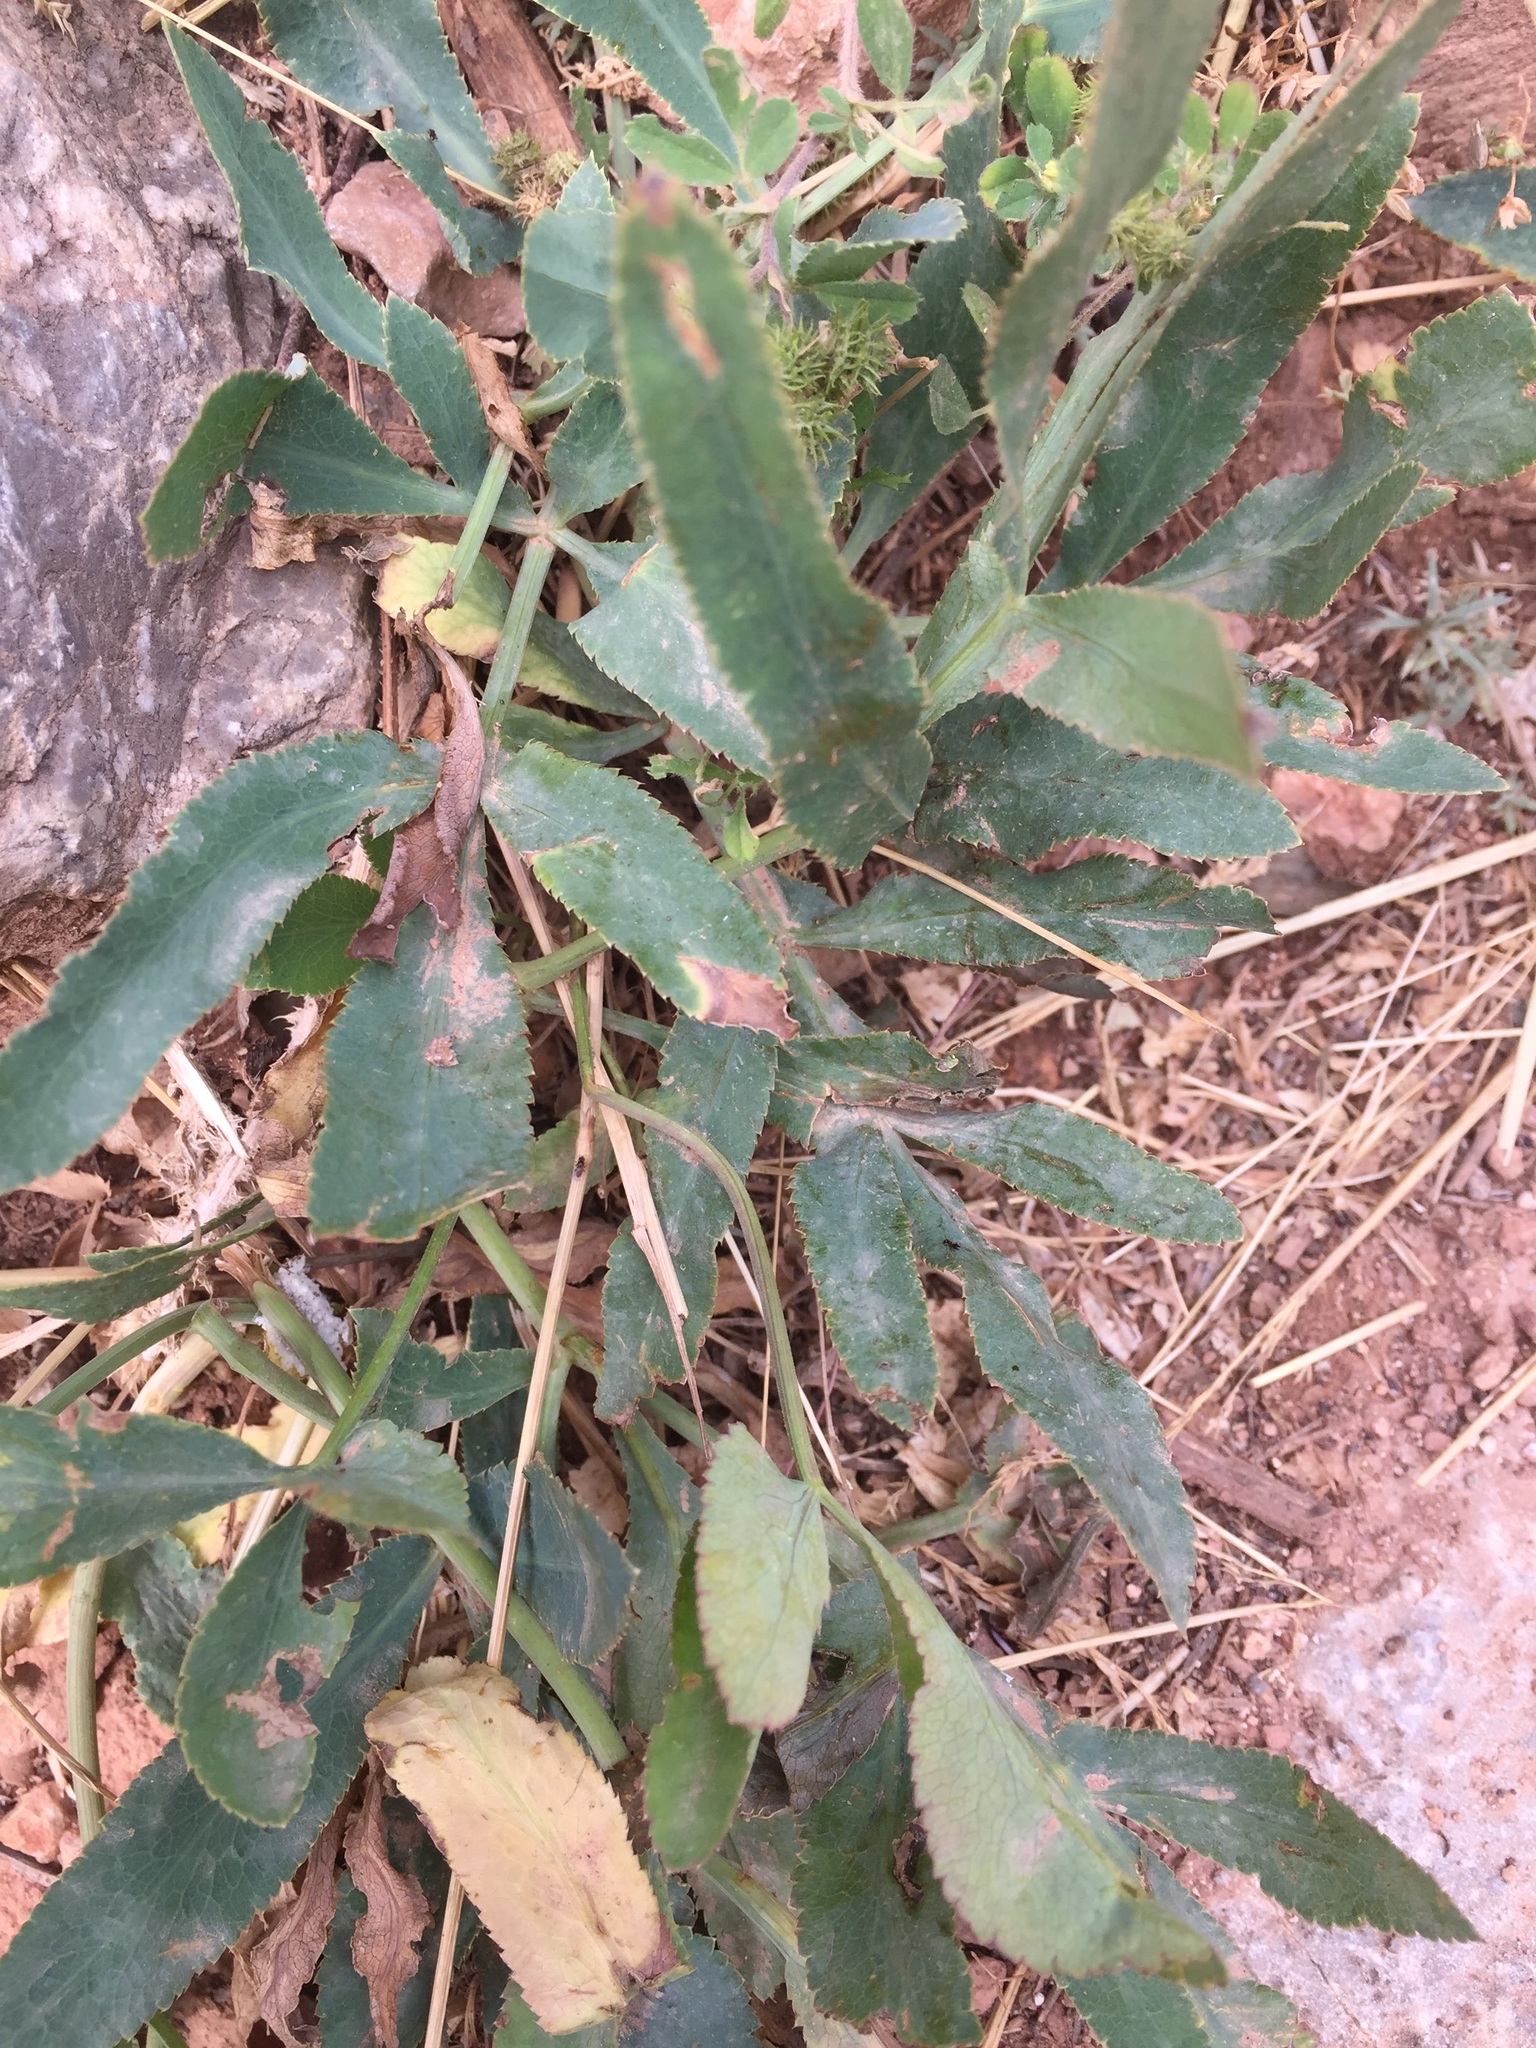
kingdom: Plantae
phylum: Tracheophyta
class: Magnoliopsida
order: Apiales
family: Apiaceae
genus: Falcaria
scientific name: Falcaria vulgaris
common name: Longleaf
